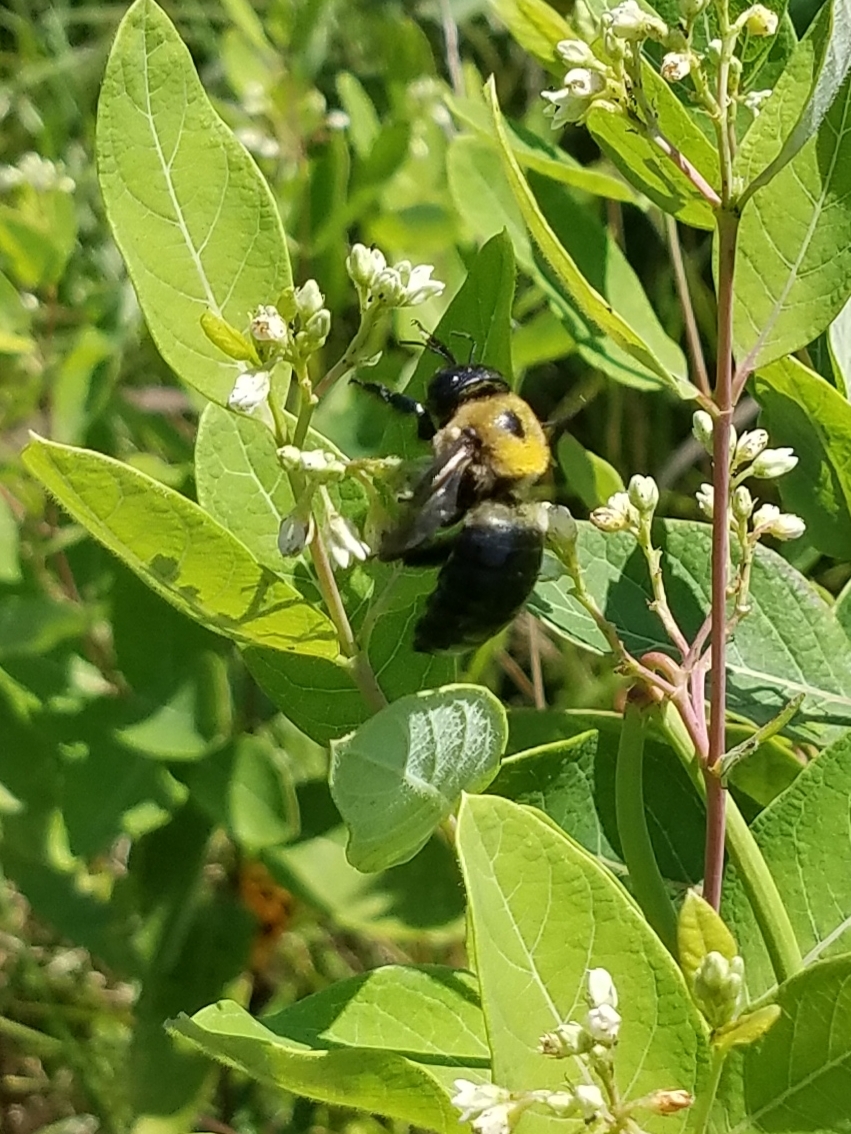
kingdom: Animalia
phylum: Arthropoda
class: Insecta
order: Hymenoptera
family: Apidae
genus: Xylocopa
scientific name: Xylocopa virginica
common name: Carpenter bee
